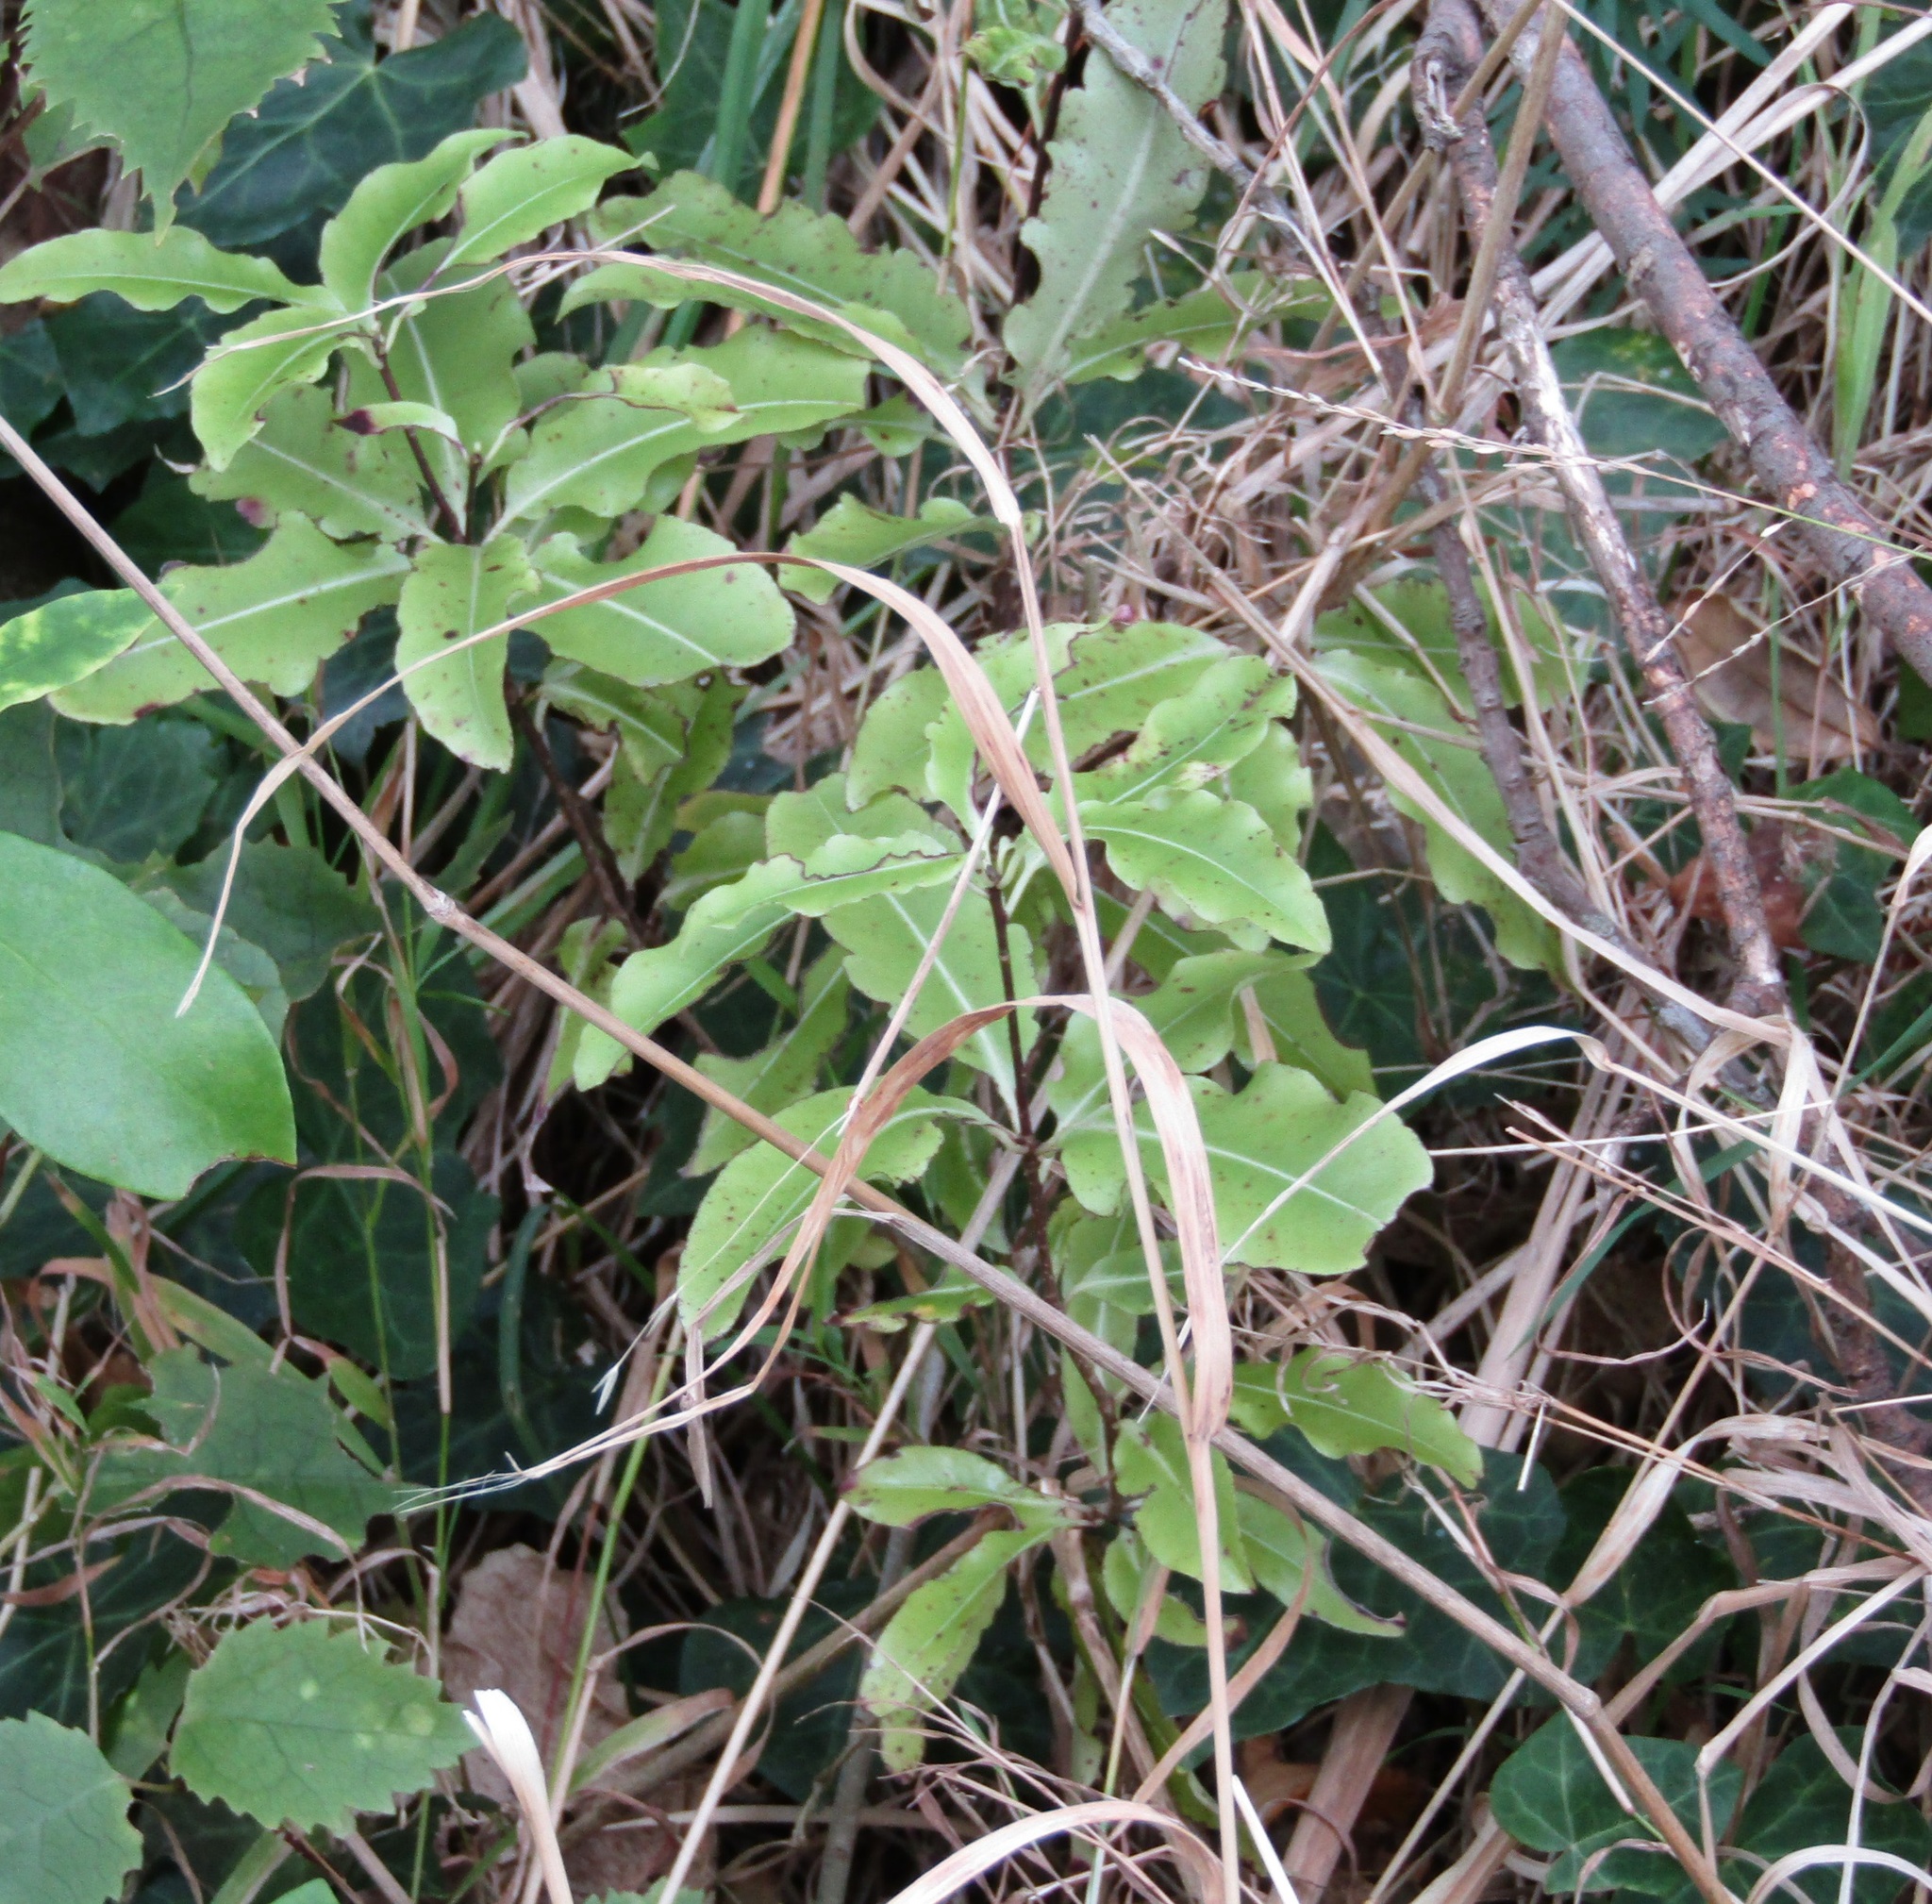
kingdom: Plantae
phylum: Tracheophyta
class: Magnoliopsida
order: Apiales
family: Pittosporaceae
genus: Pittosporum
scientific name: Pittosporum tenuifolium
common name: Kohuhu
